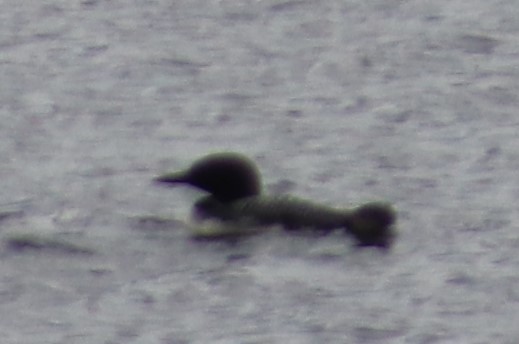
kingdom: Animalia
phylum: Chordata
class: Aves
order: Gaviiformes
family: Gaviidae
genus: Gavia
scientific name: Gavia immer
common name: Common loon
